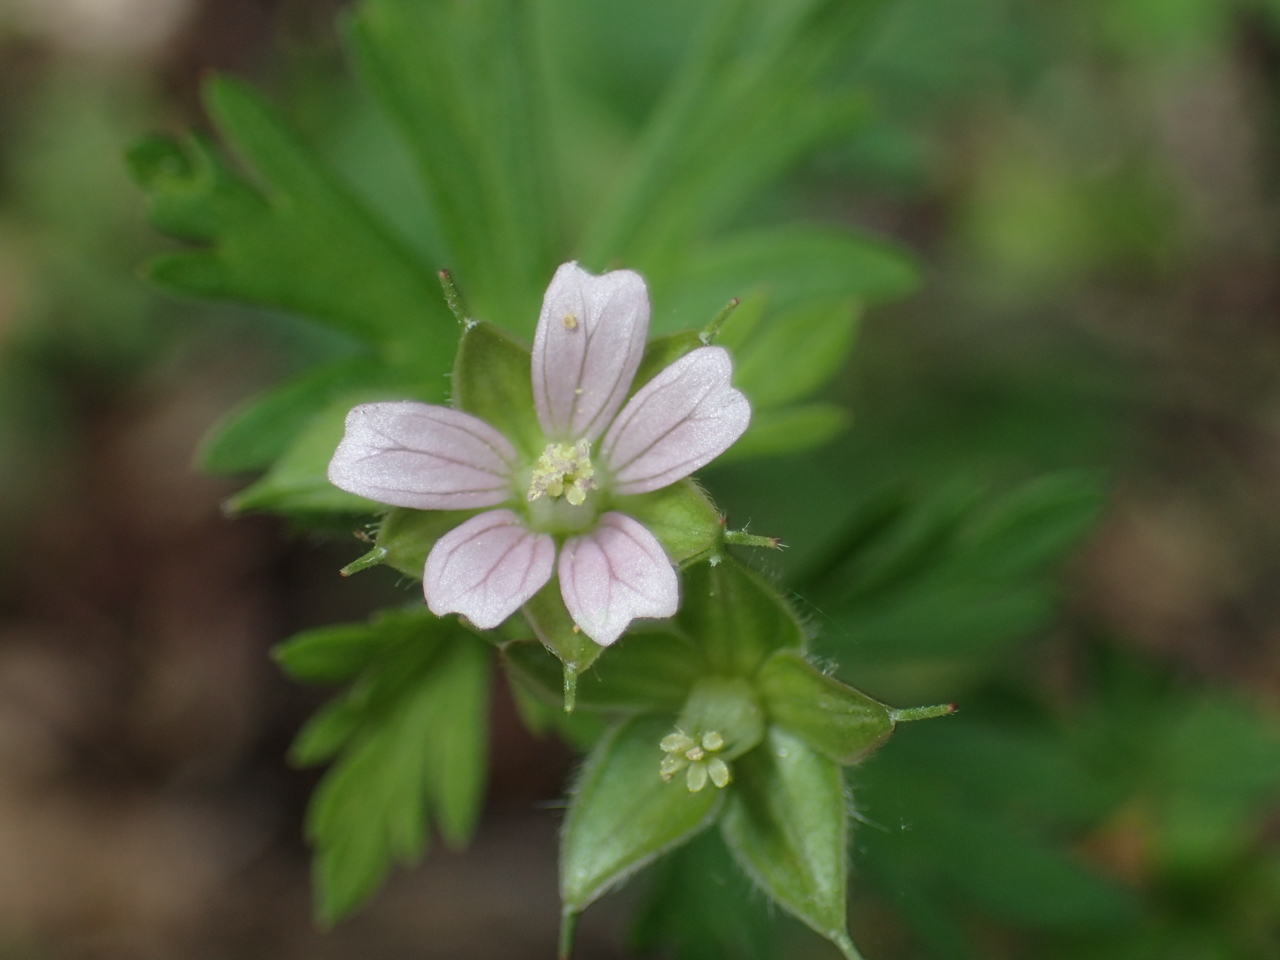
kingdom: Plantae
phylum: Tracheophyta
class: Magnoliopsida
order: Geraniales
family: Geraniaceae
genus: Geranium
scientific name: Geranium carolinianum
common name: Carolina crane's-bill
